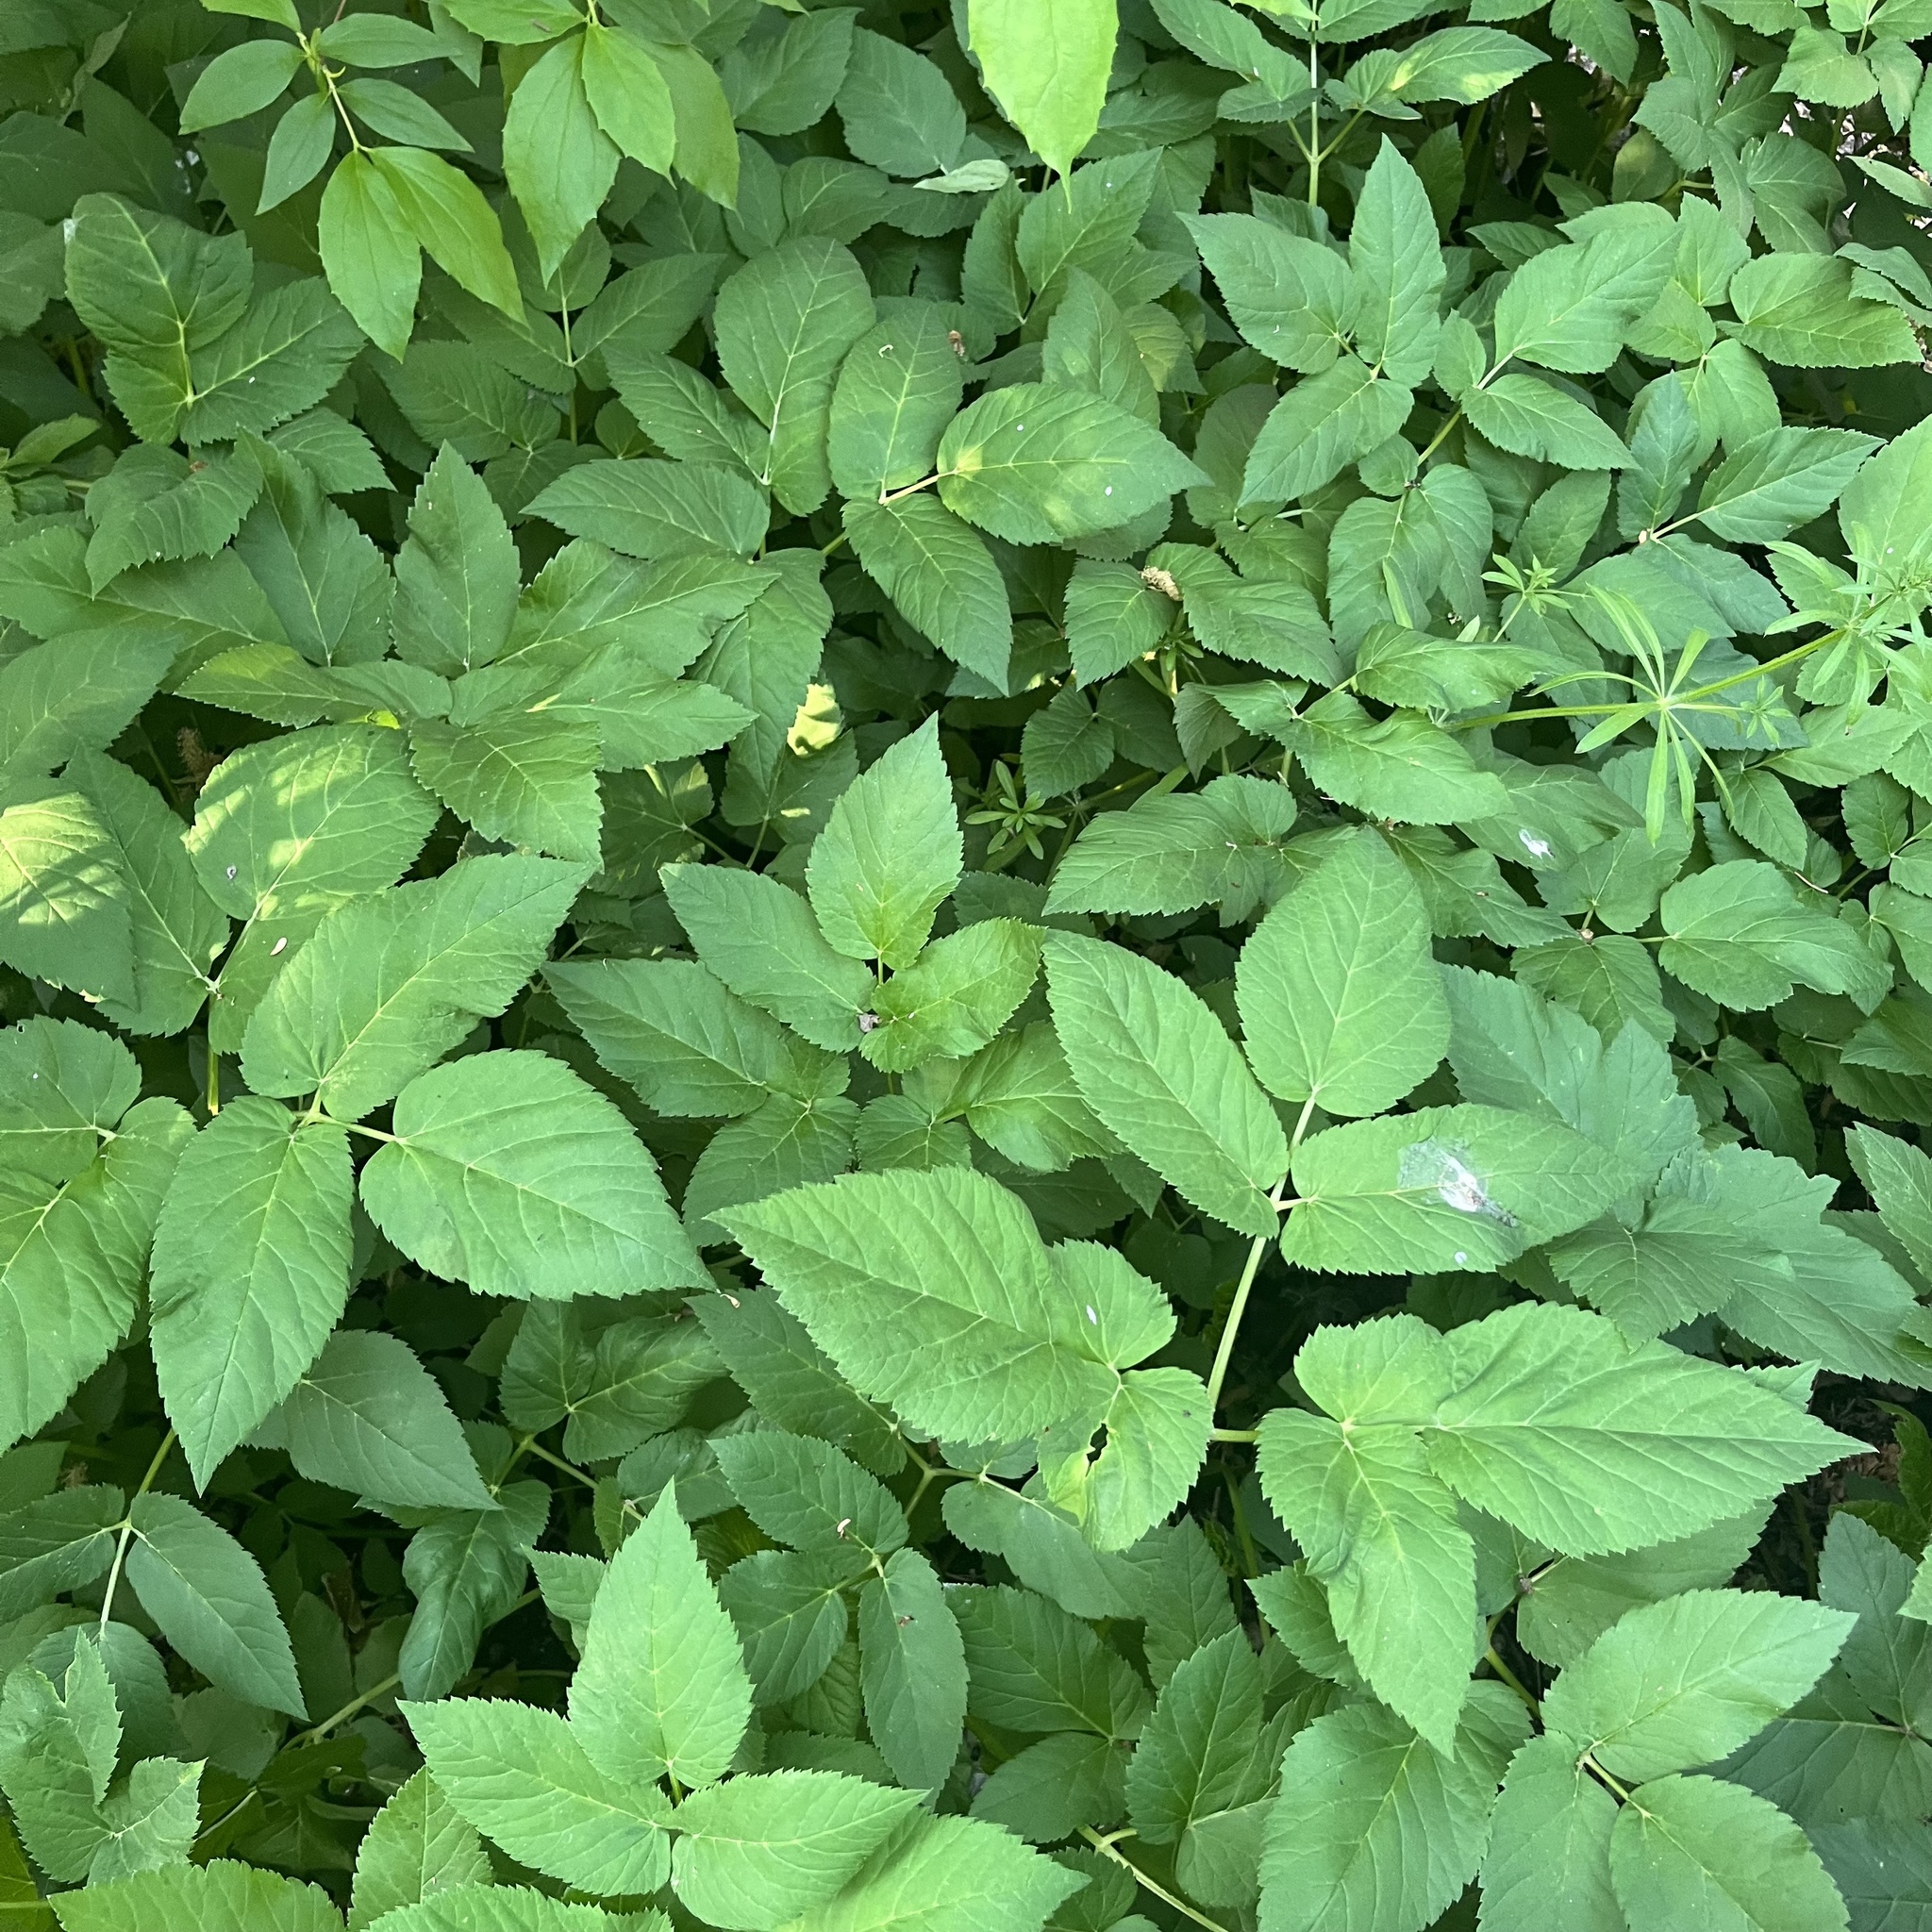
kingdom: Plantae
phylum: Tracheophyta
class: Magnoliopsida
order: Apiales
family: Apiaceae
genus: Aegopodium
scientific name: Aegopodium podagraria
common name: Ground-elder
